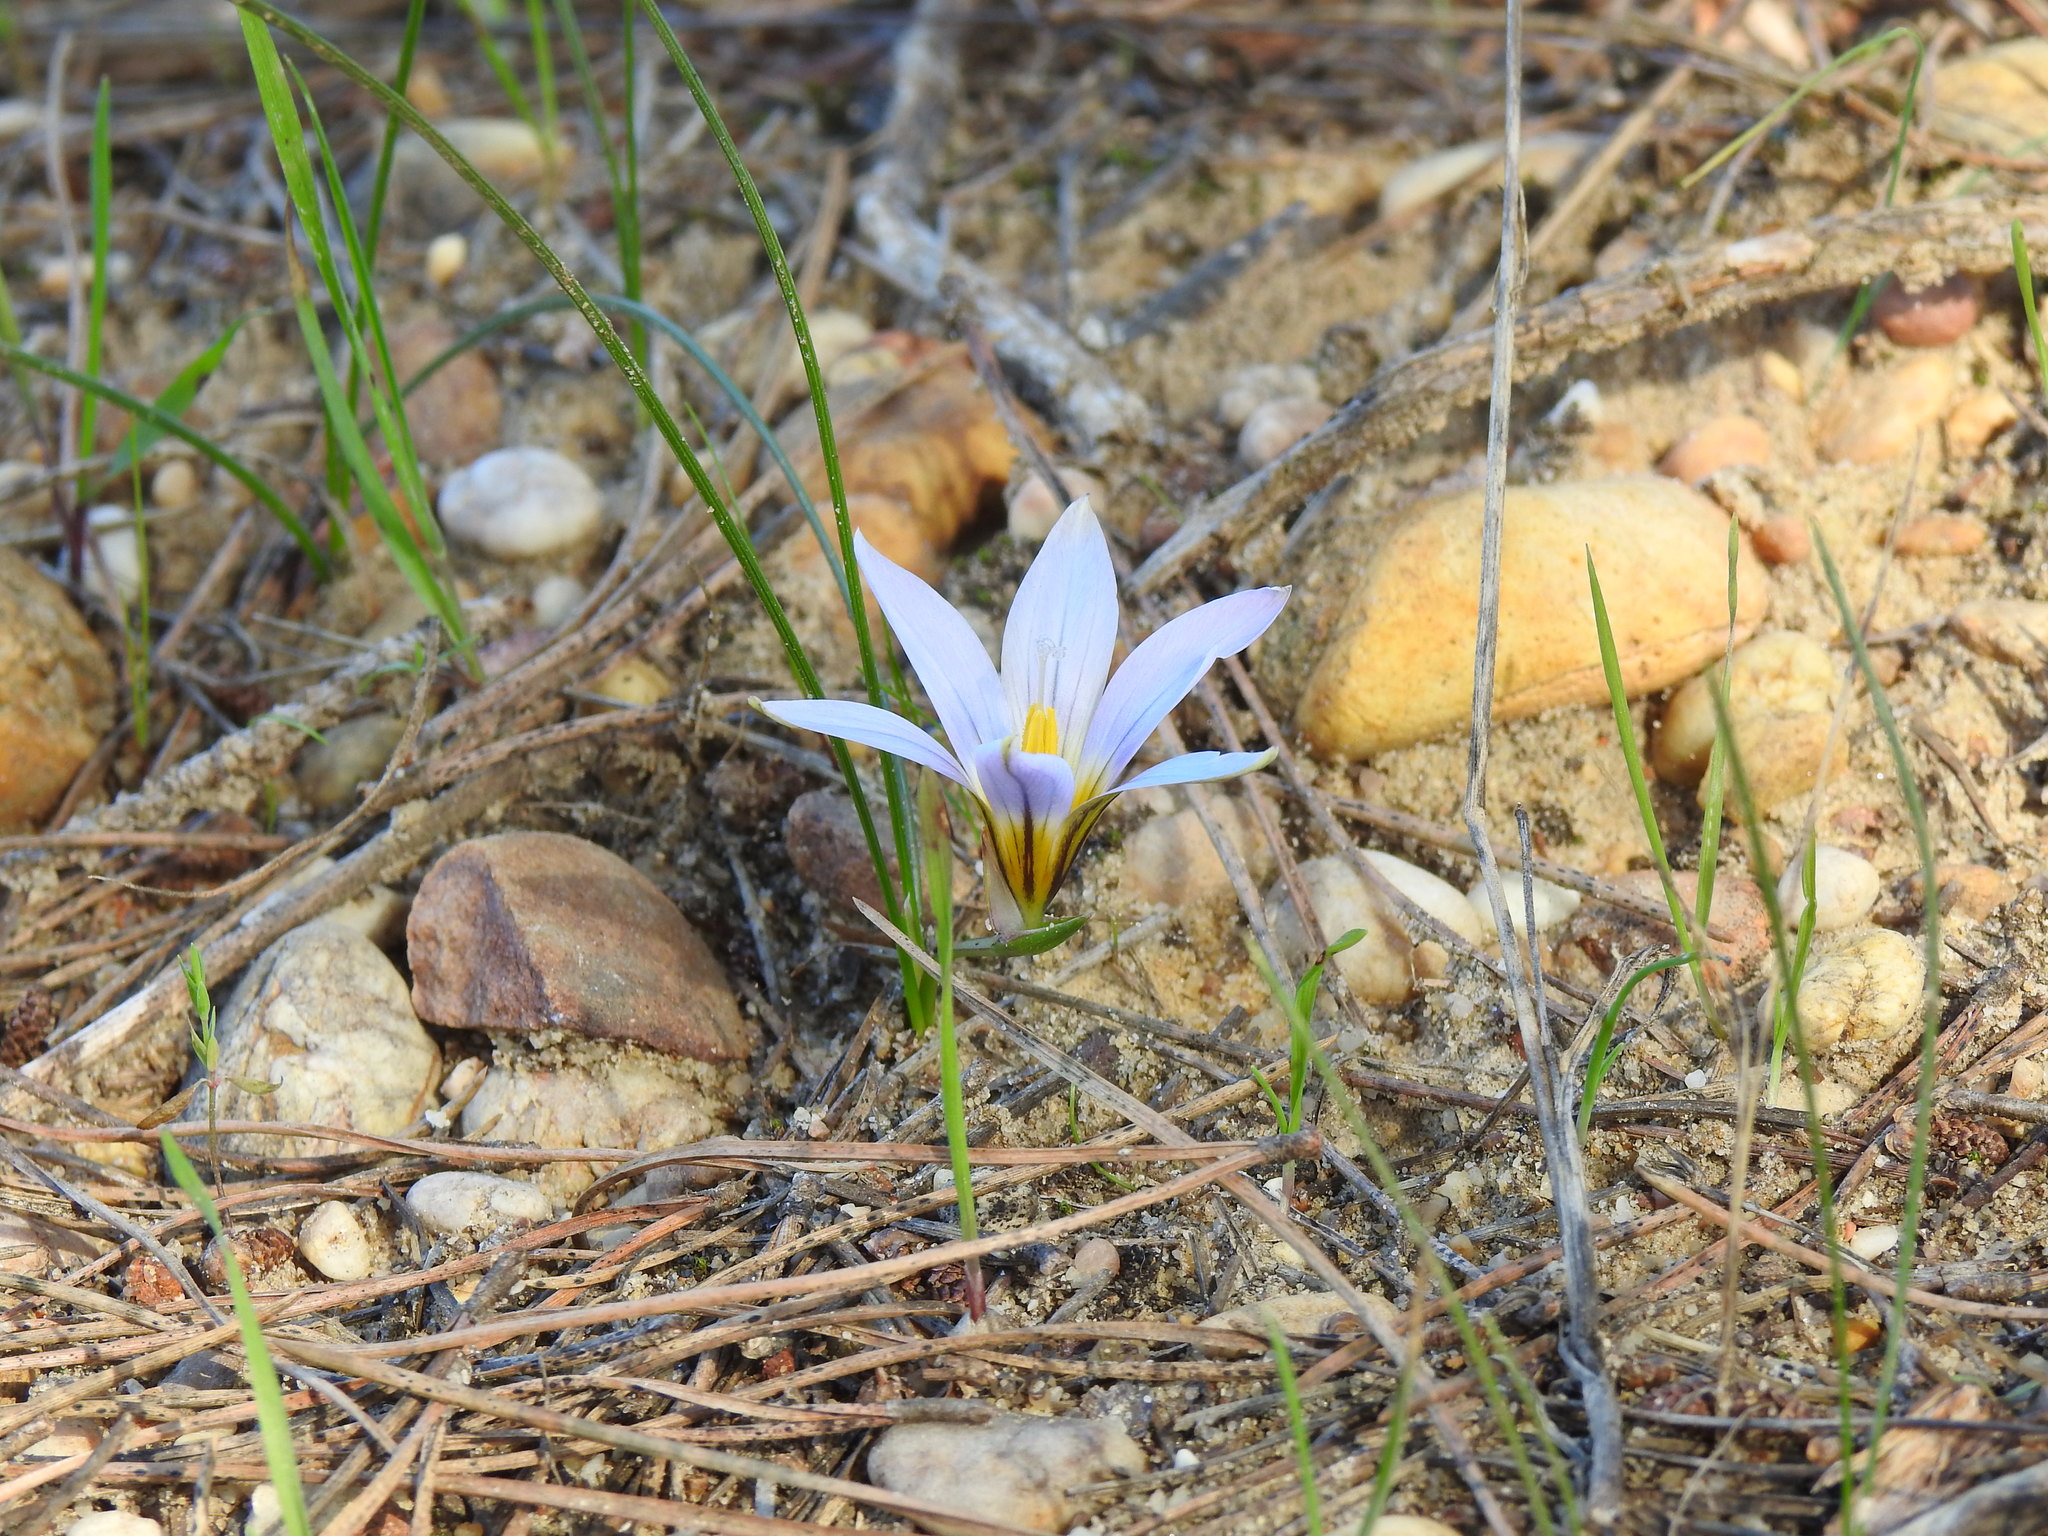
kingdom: Plantae
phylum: Tracheophyta
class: Liliopsida
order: Asparagales
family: Iridaceae
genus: Romulea
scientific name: Romulea bulbocodium
